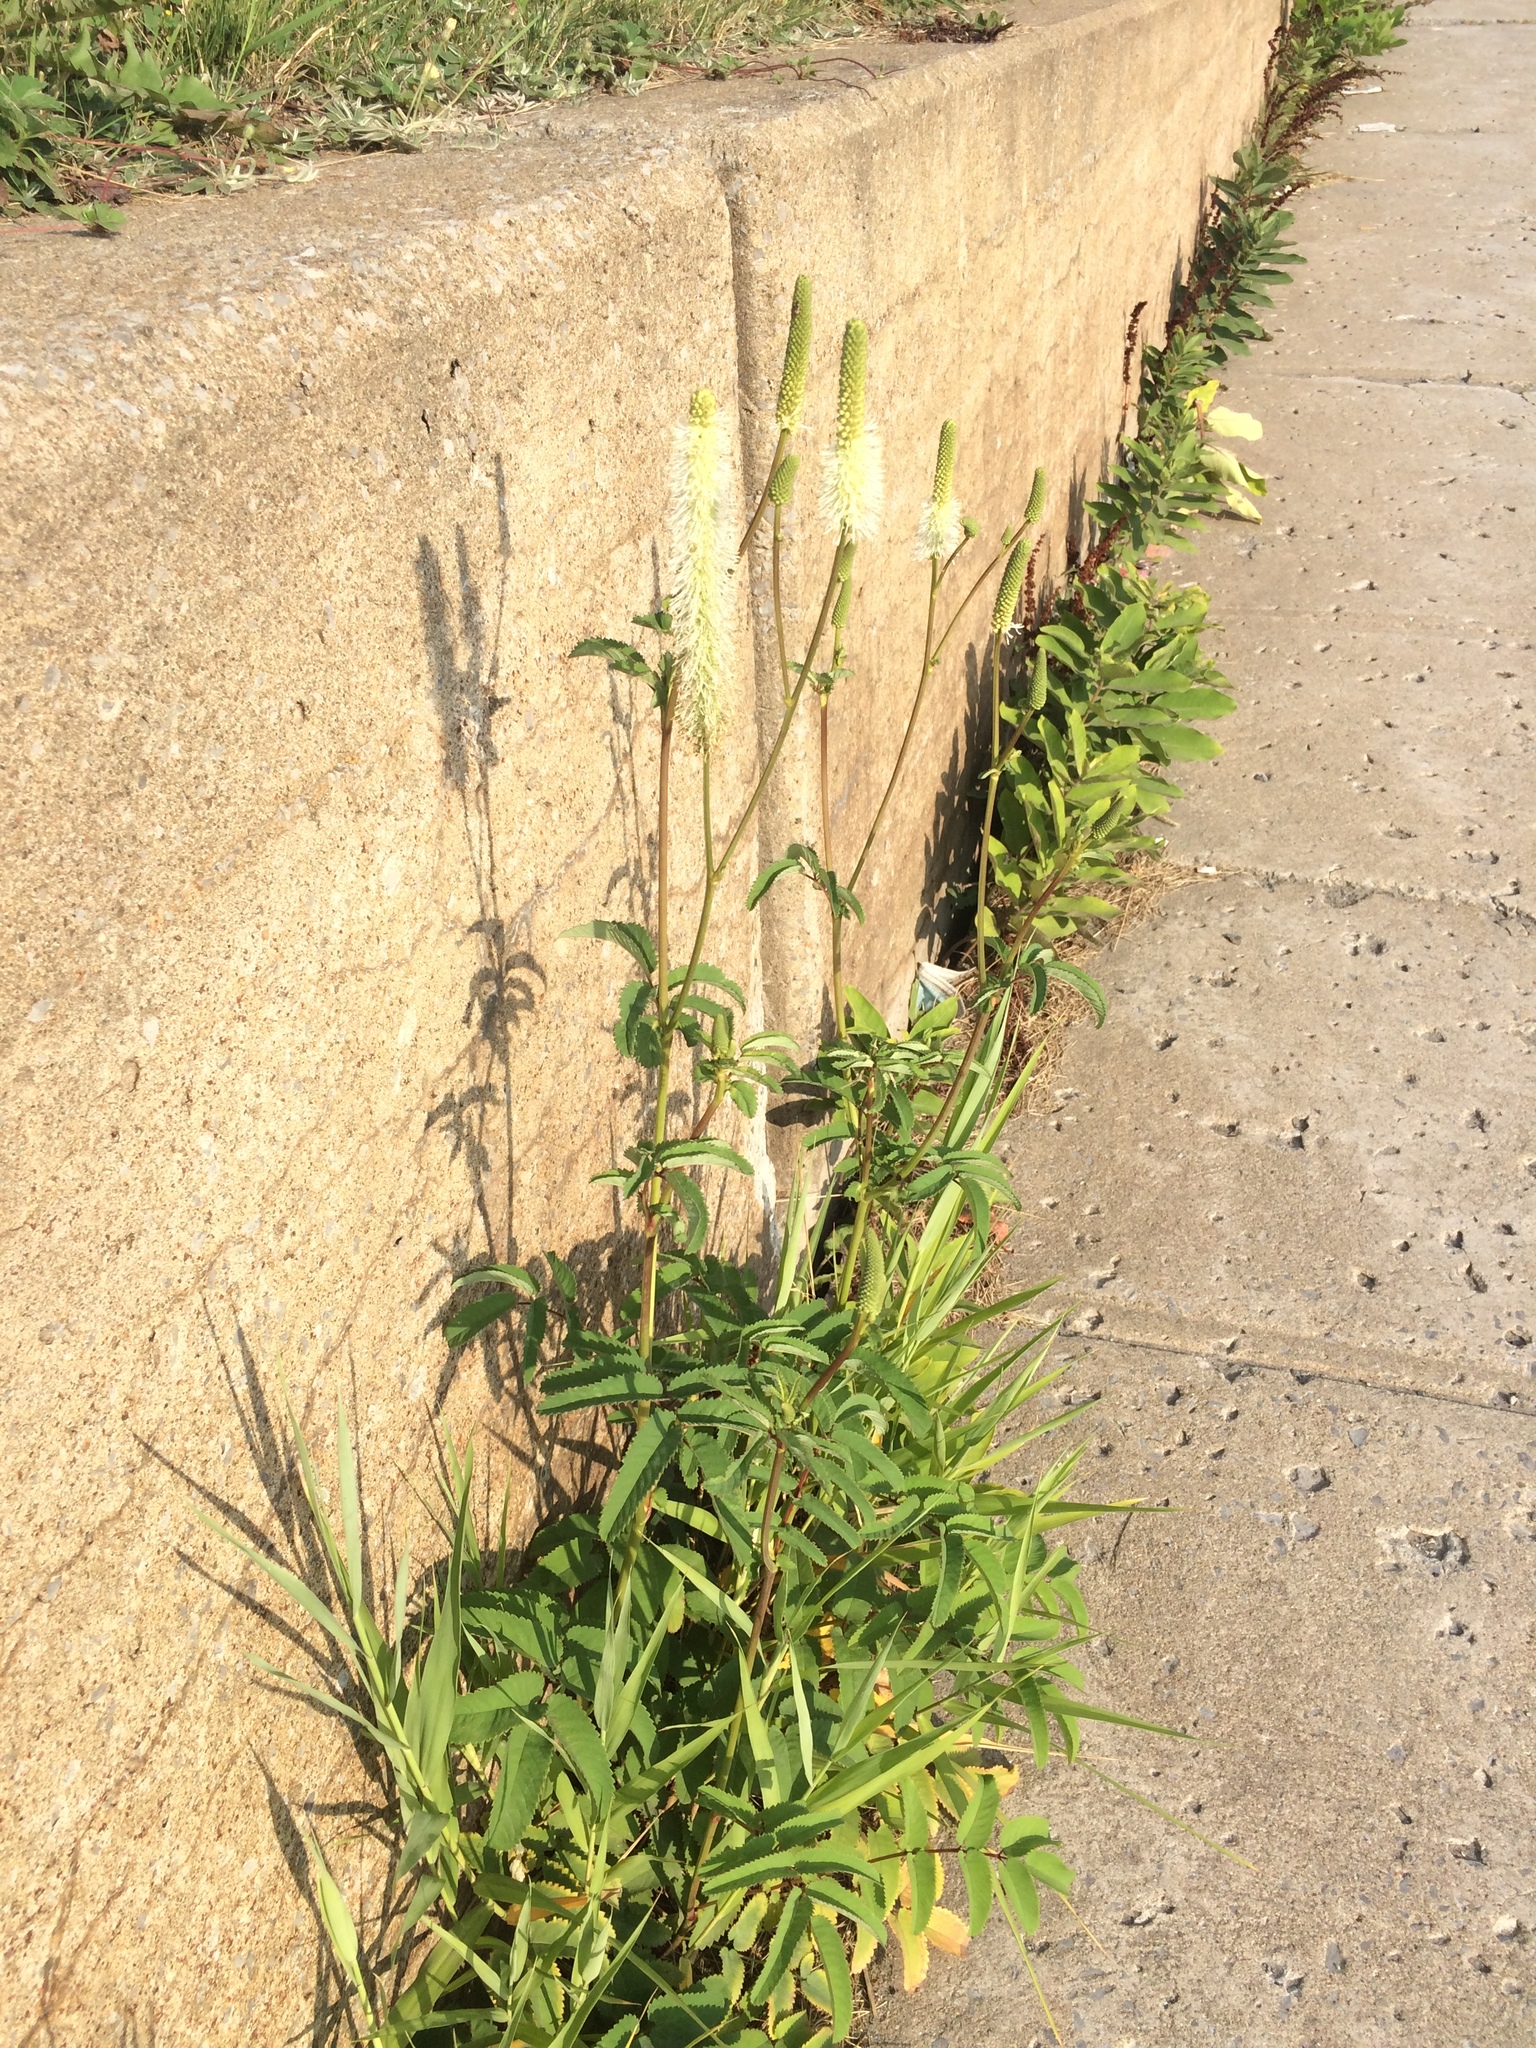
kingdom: Plantae
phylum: Tracheophyta
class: Magnoliopsida
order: Rosales
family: Rosaceae
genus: Sanguisorba
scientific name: Sanguisorba canadensis
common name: White burnet
